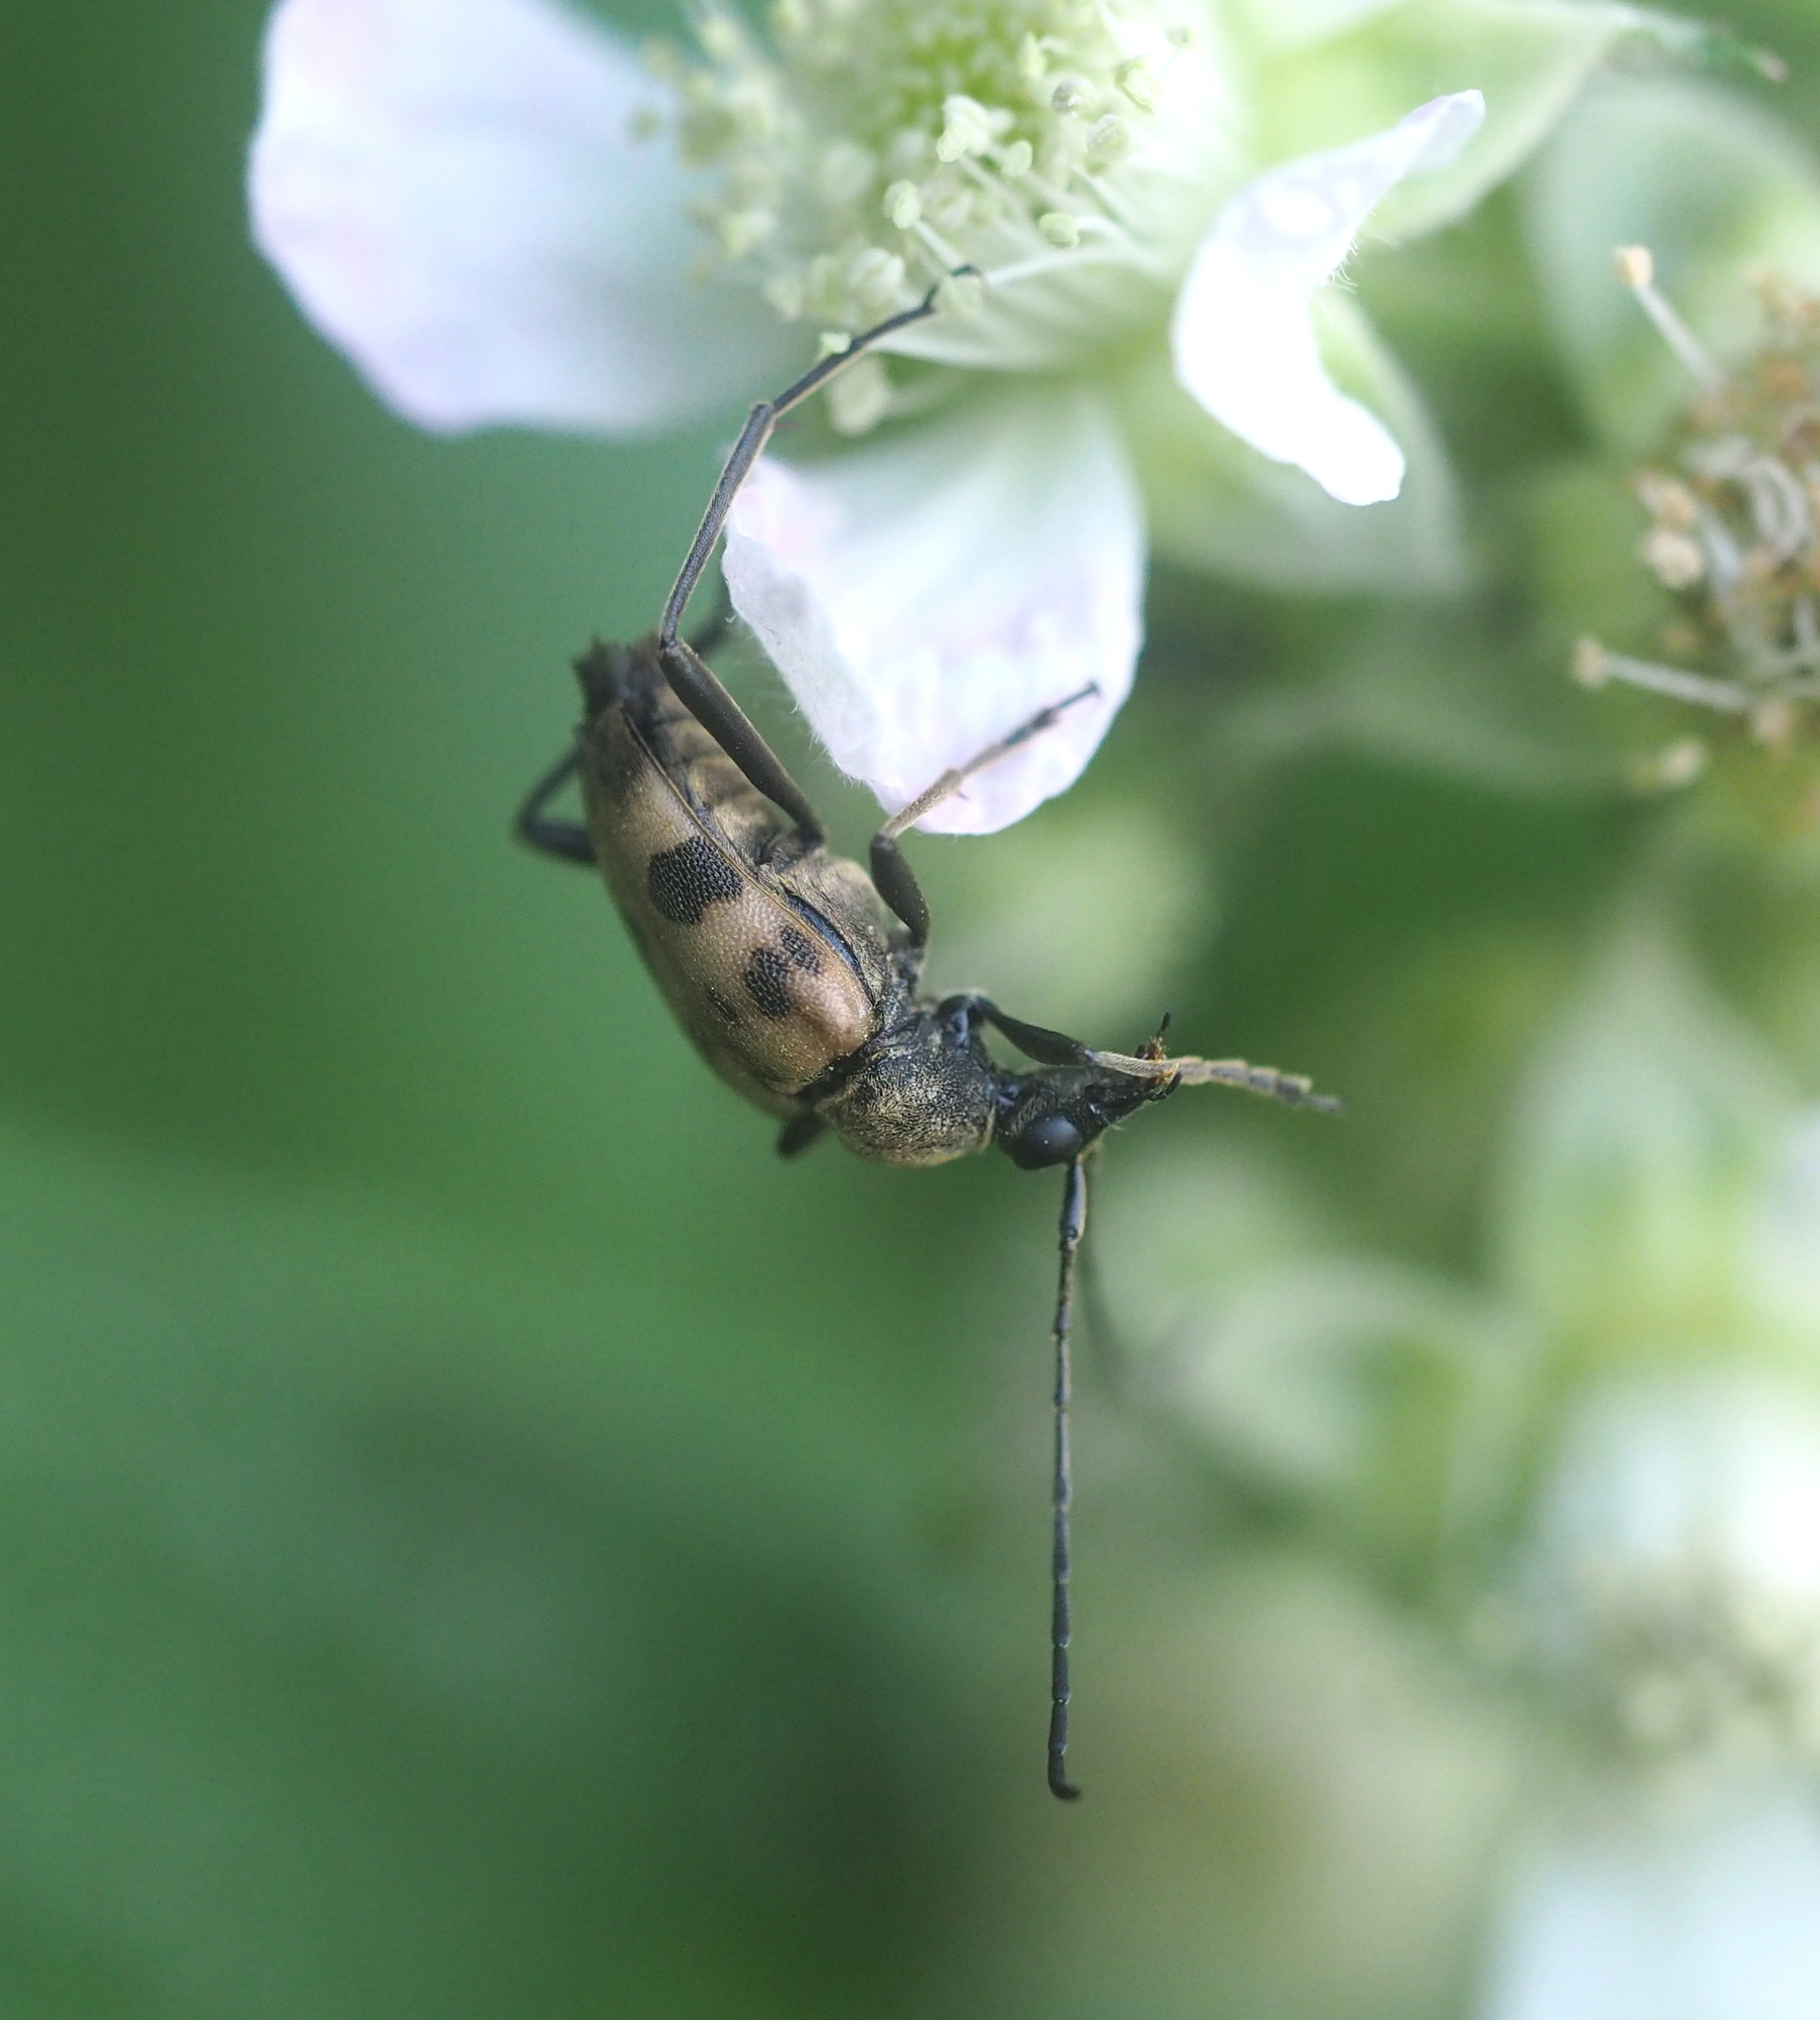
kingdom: Animalia
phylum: Arthropoda
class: Insecta
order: Coleoptera
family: Cerambycidae
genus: Pachytodes
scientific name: Pachytodes cerambyciformis
